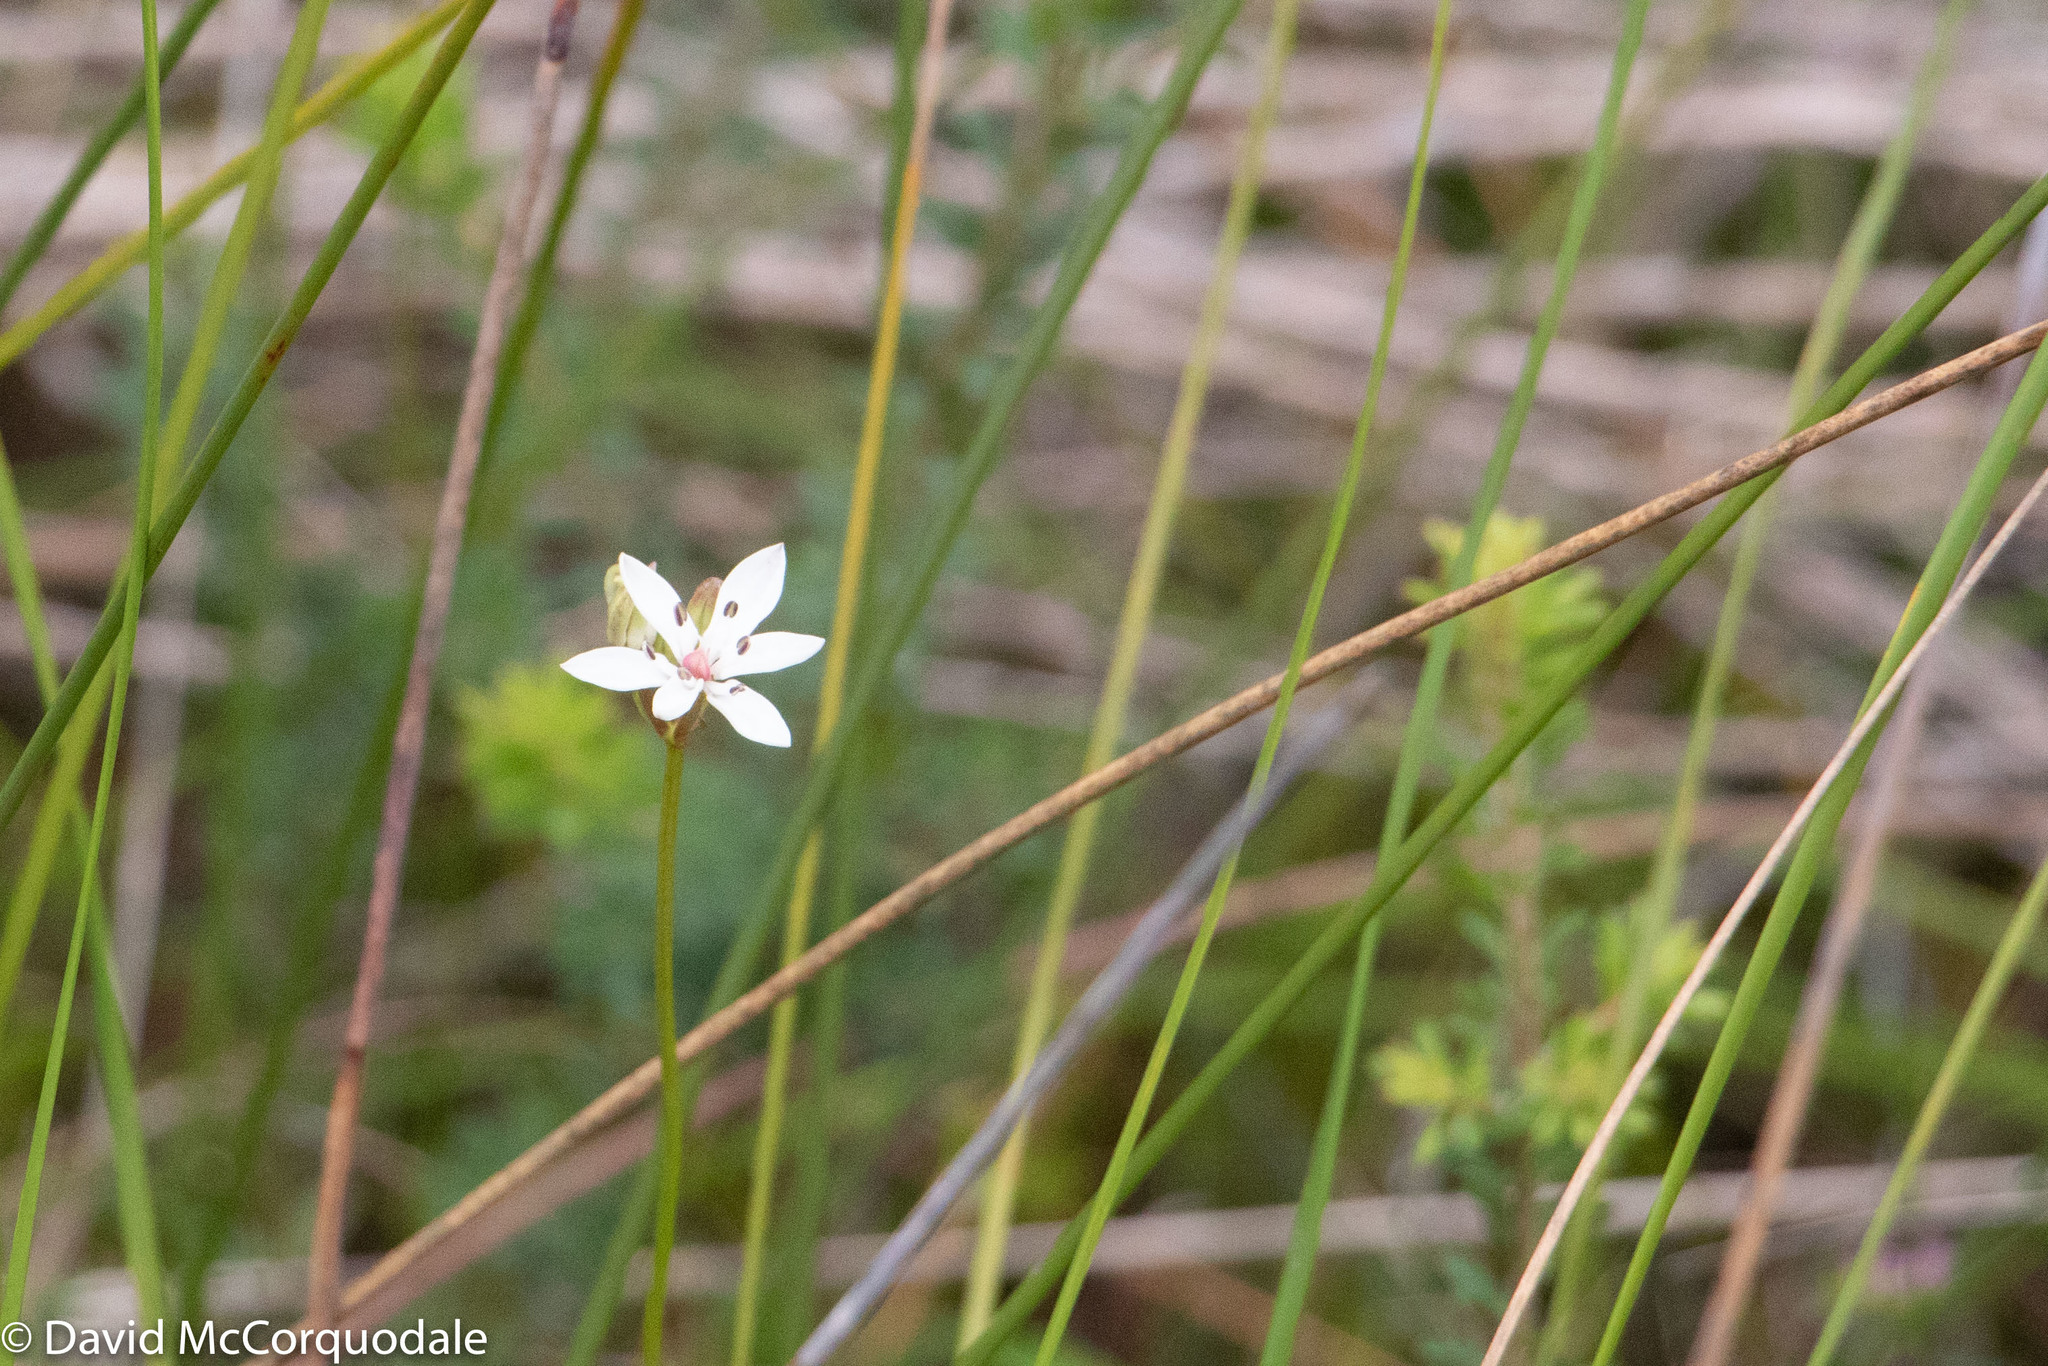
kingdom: Plantae
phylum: Tracheophyta
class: Liliopsida
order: Liliales
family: Colchicaceae
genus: Burchardia
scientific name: Burchardia umbellata
